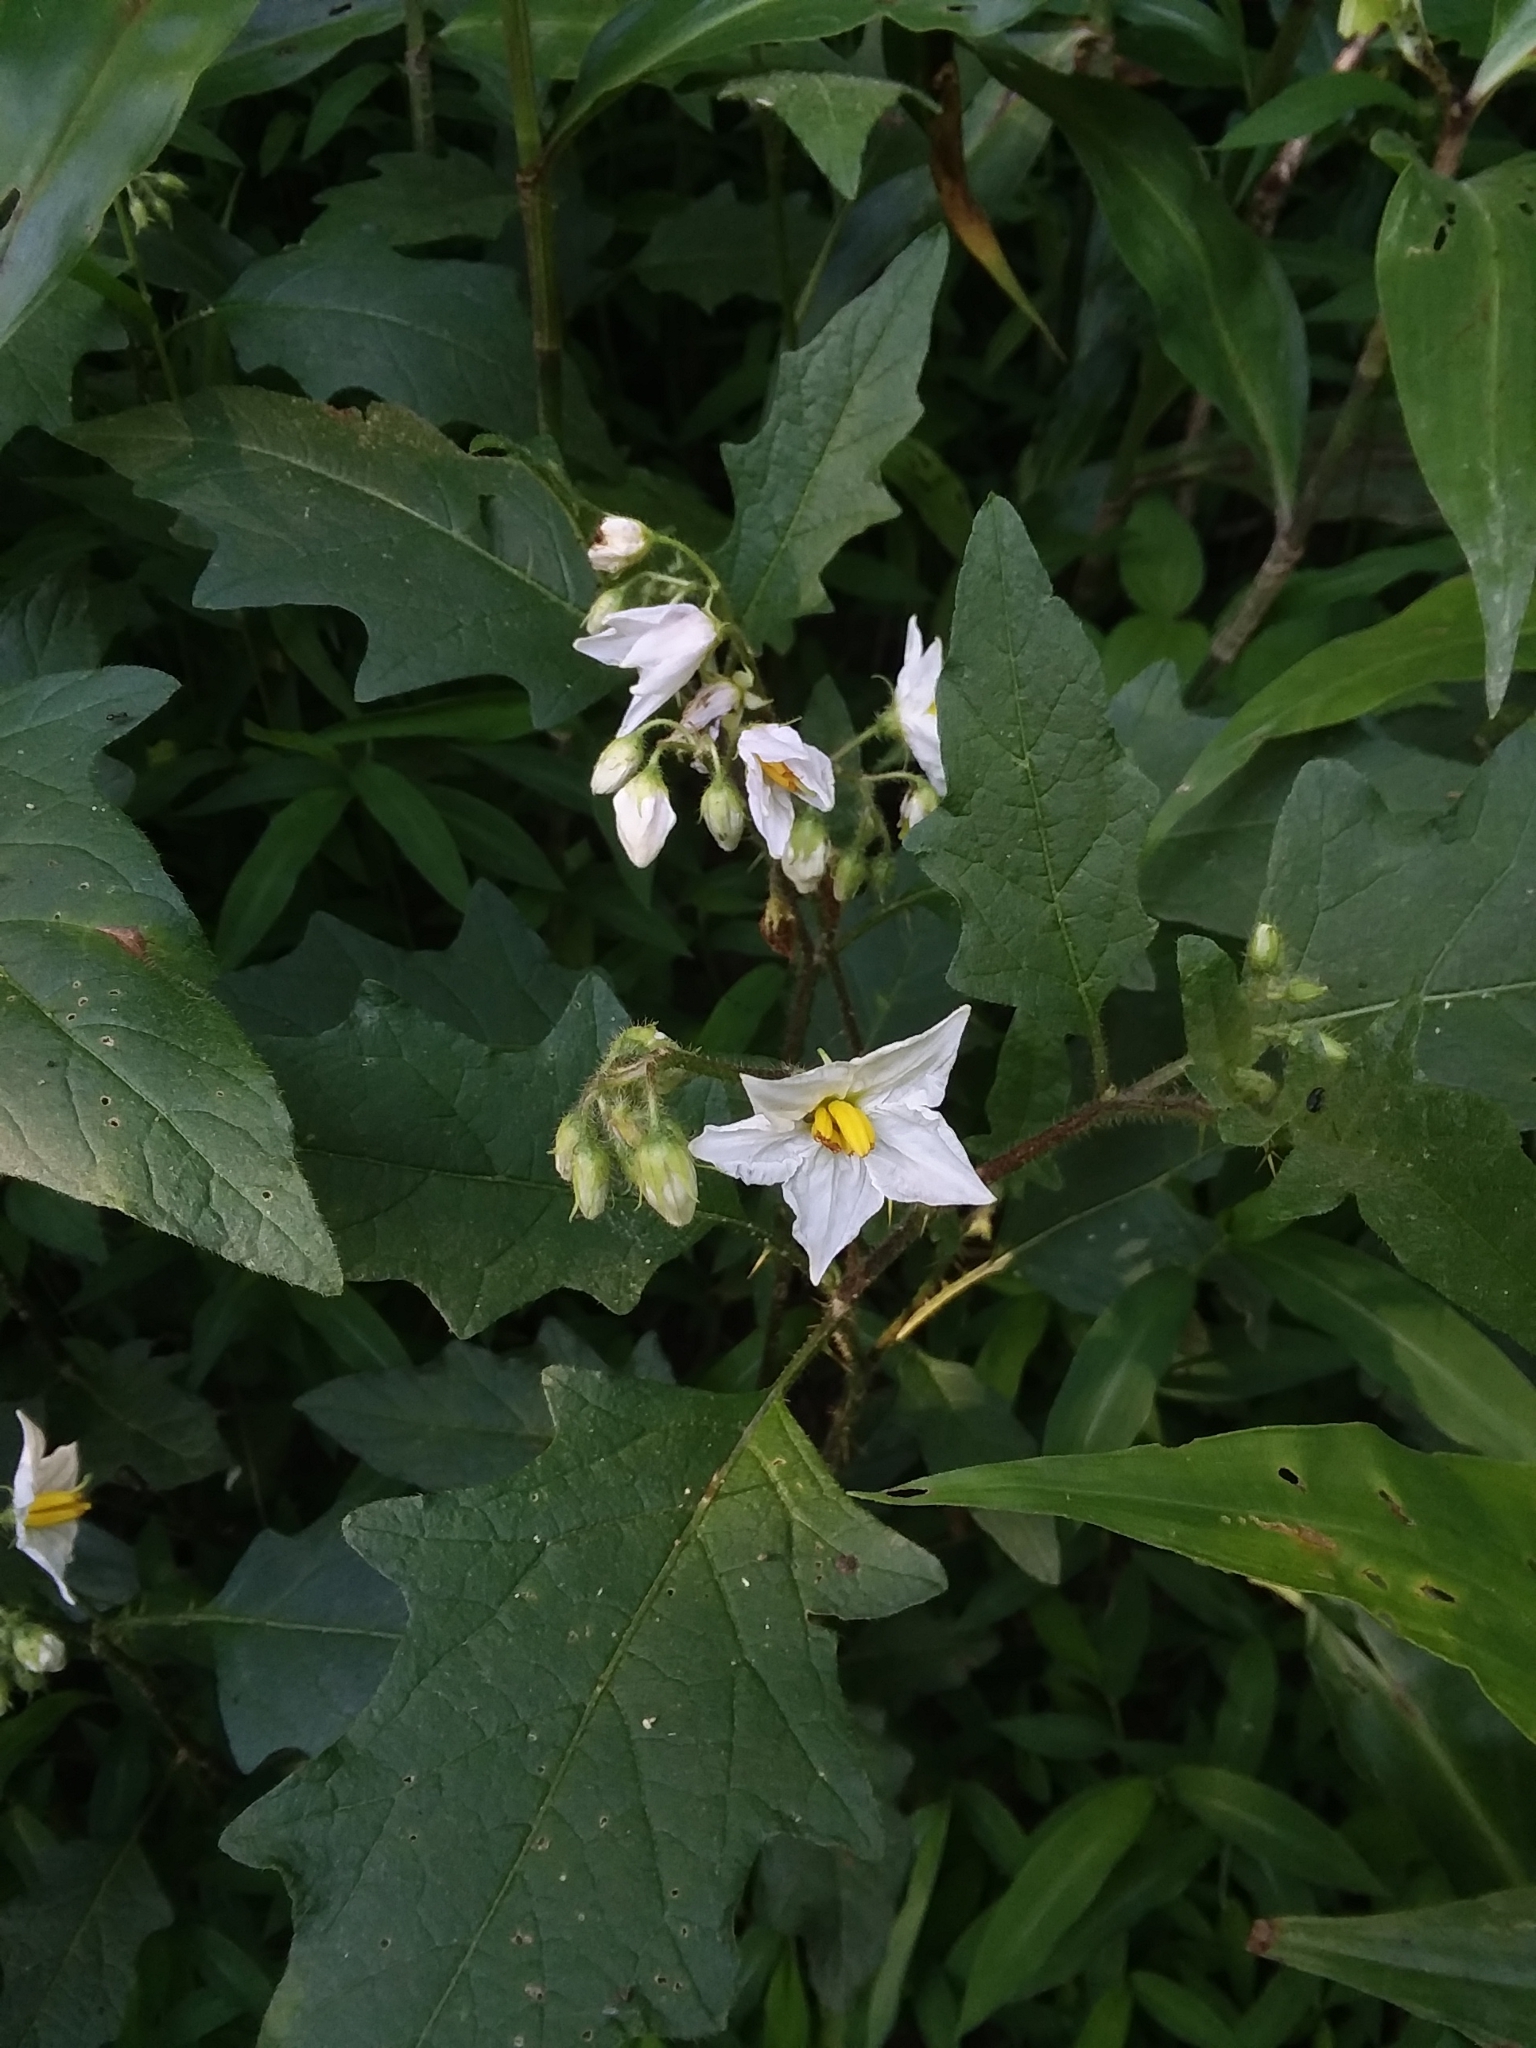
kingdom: Plantae
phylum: Tracheophyta
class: Magnoliopsida
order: Solanales
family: Solanaceae
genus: Solanum
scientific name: Solanum carolinense
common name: Horse-nettle
